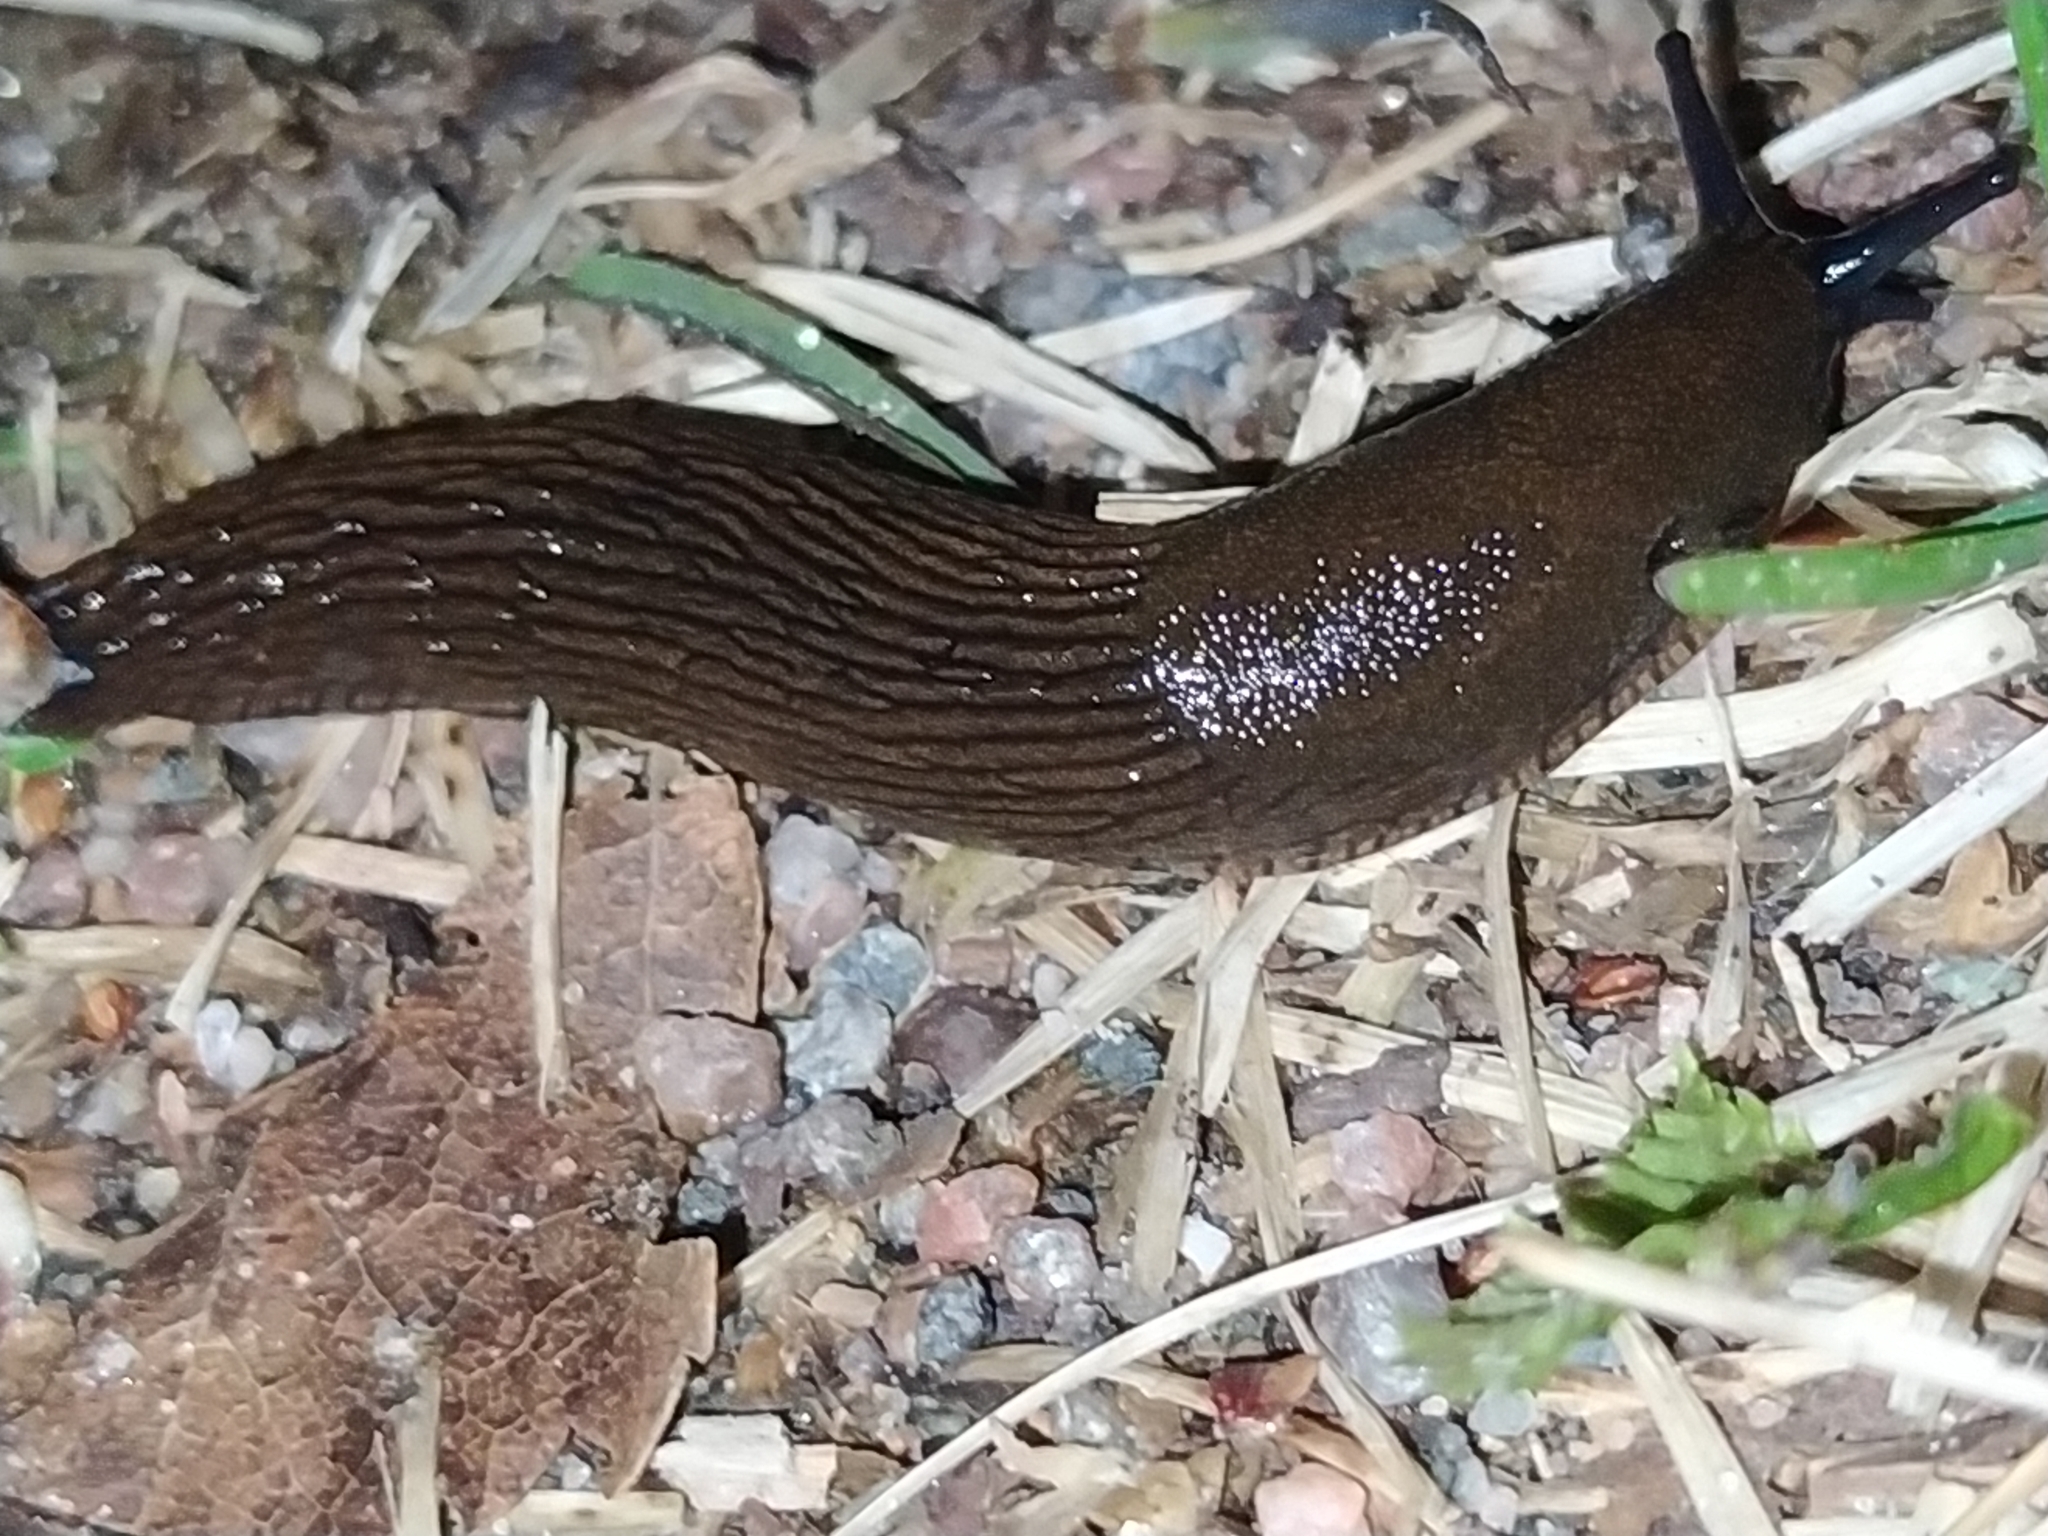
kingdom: Animalia
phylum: Mollusca
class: Gastropoda
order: Stylommatophora
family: Arionidae
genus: Arion
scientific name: Arion vulgaris
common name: Lusitanian slug
